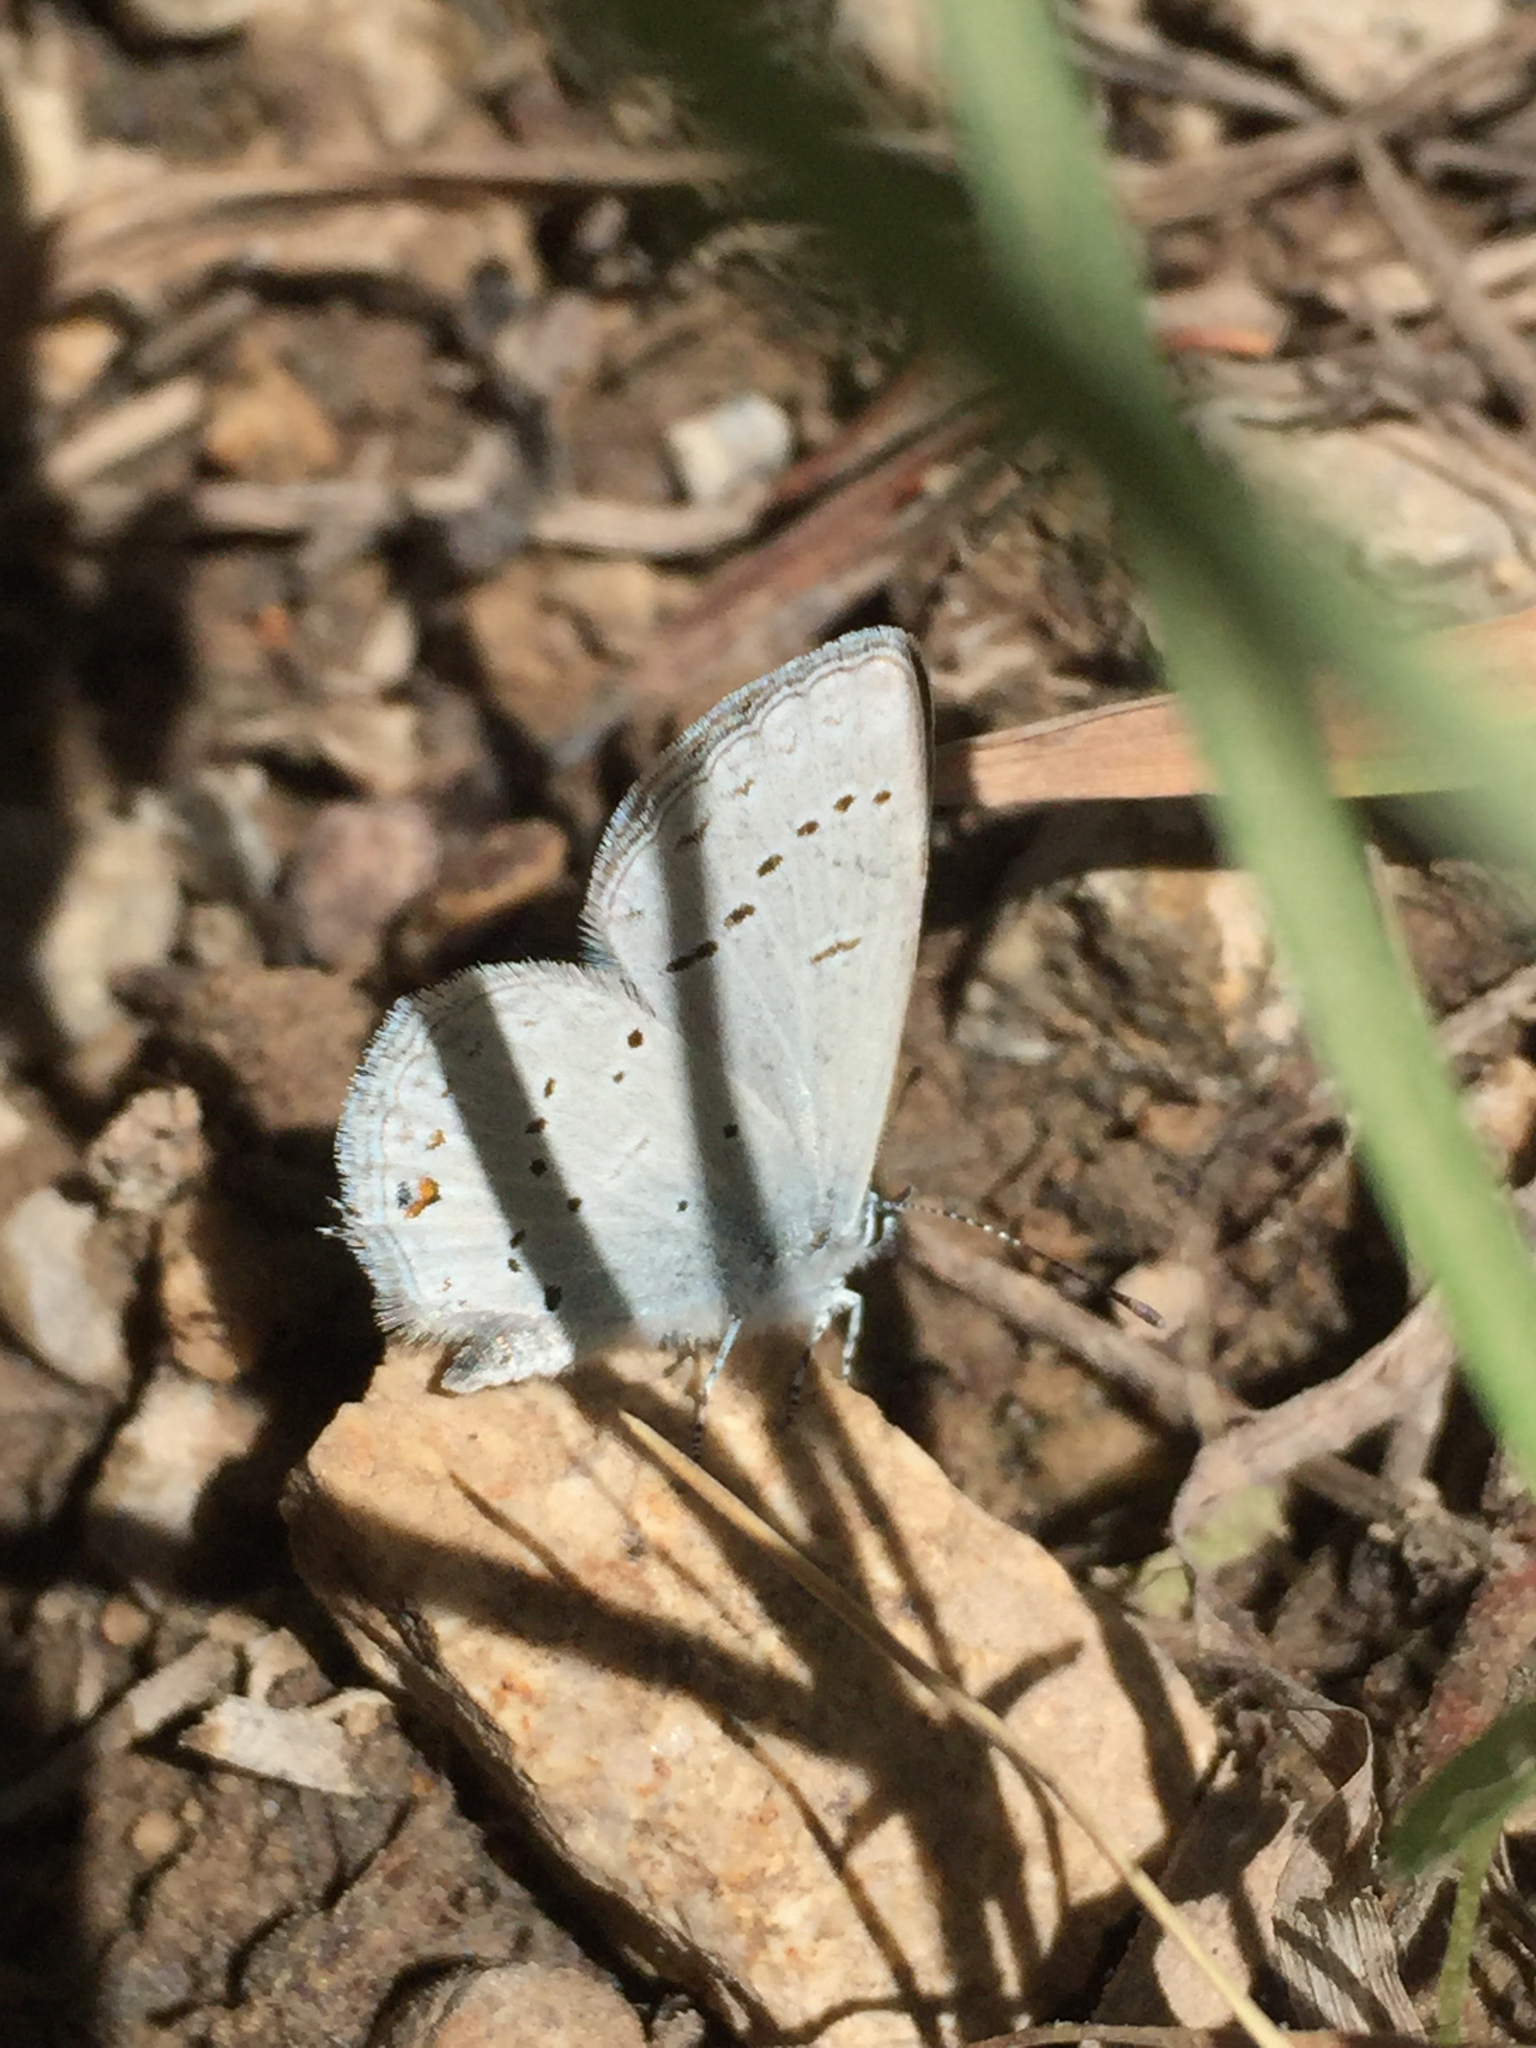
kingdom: Animalia
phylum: Arthropoda
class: Insecta
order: Lepidoptera
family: Lycaenidae
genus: Elkalyce
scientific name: Elkalyce amyntula
